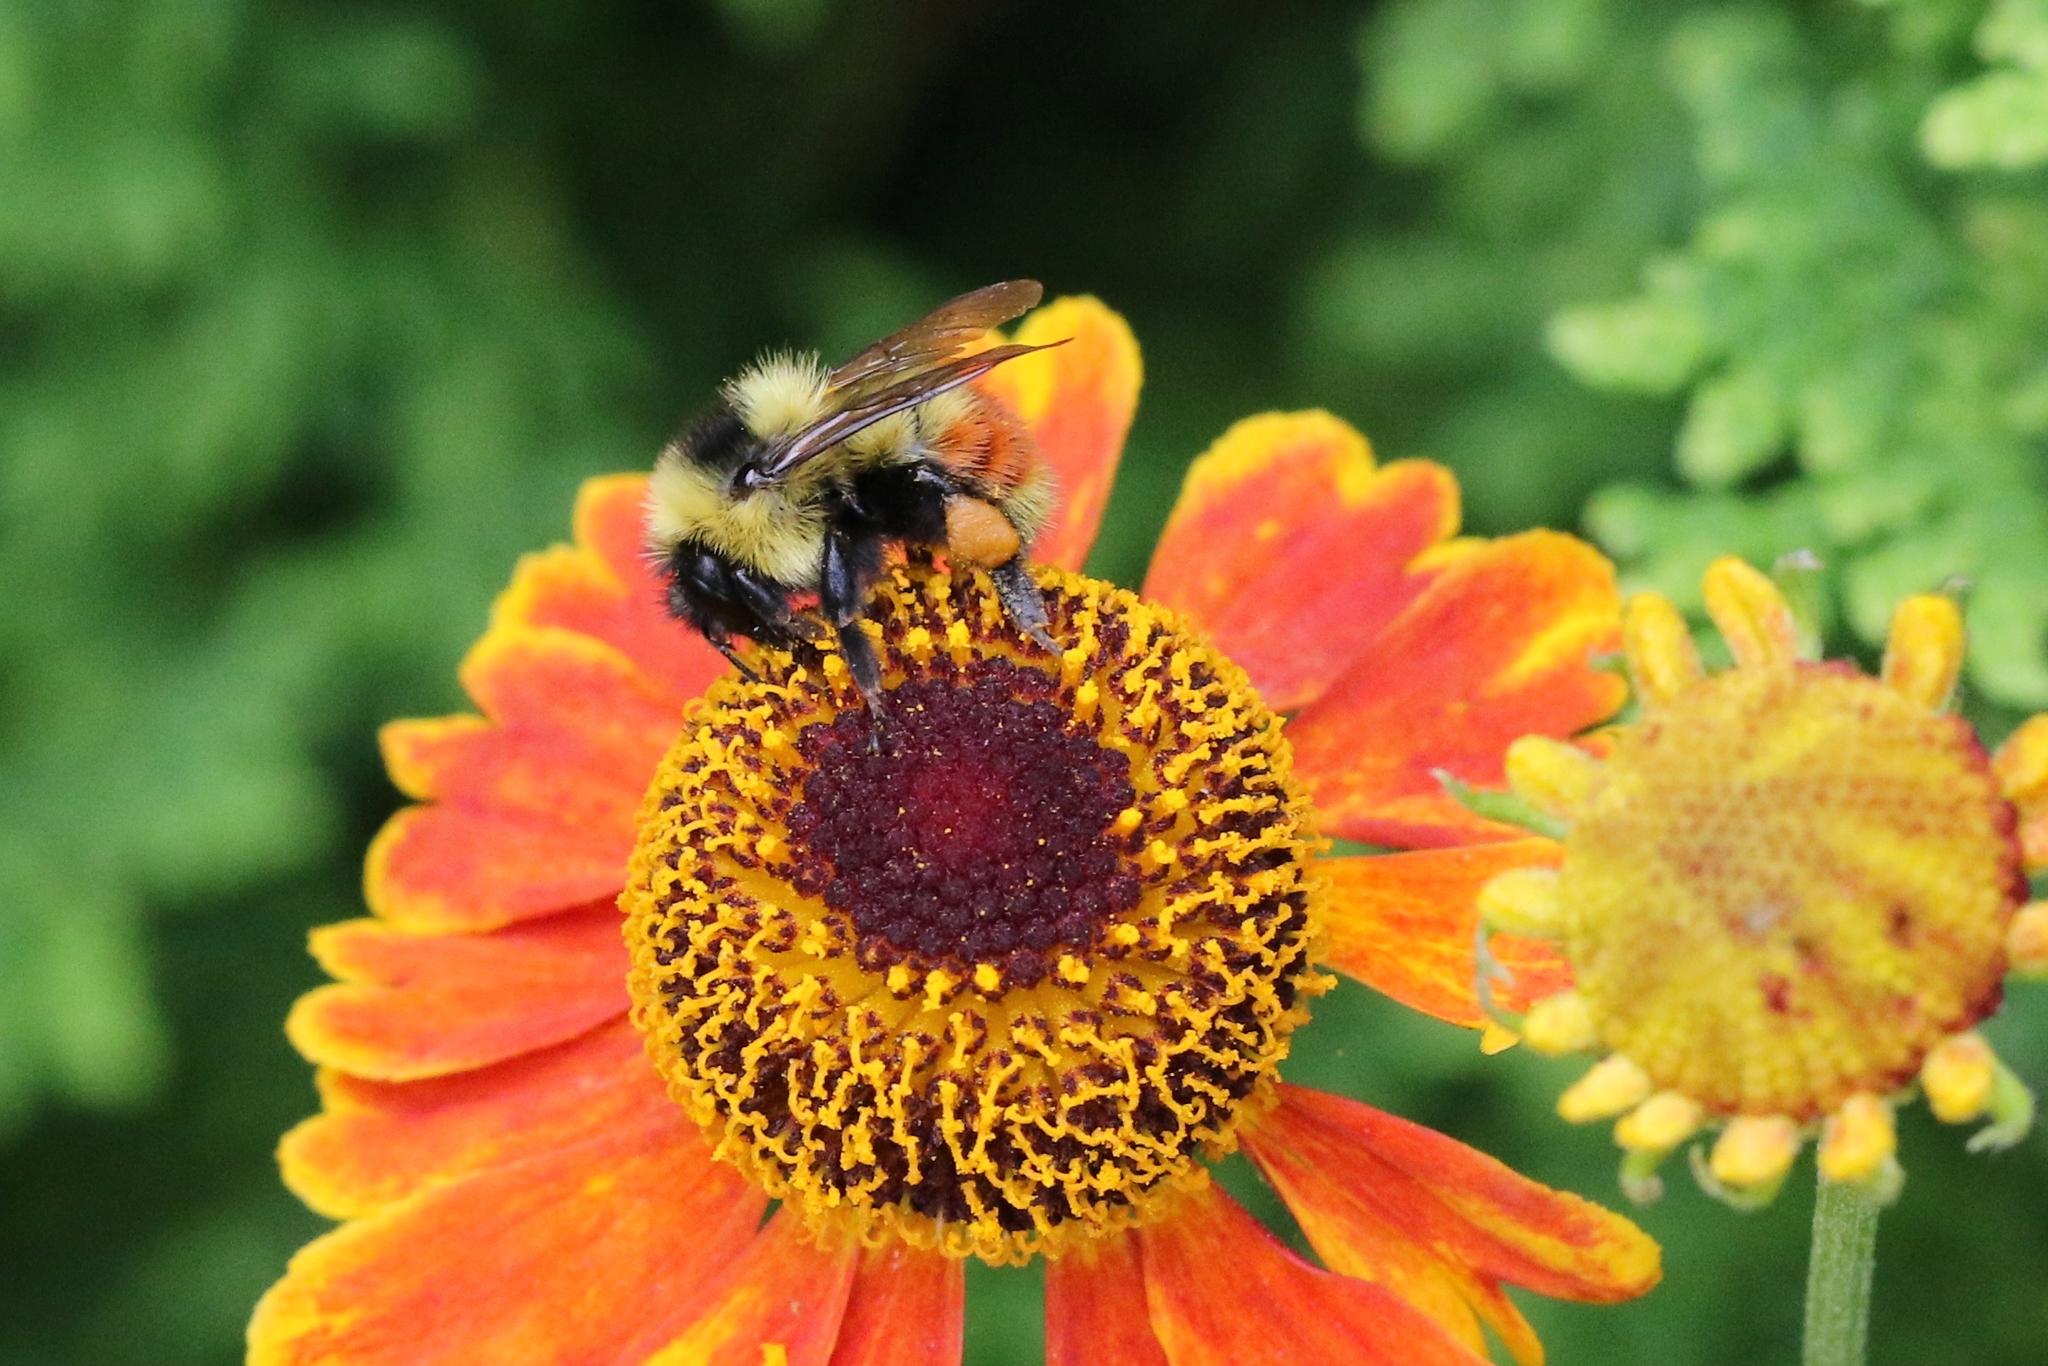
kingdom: Animalia
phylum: Arthropoda
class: Insecta
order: Hymenoptera
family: Apidae
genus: Bombus
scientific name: Bombus rufocinctus
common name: Red-belted bumble bee
